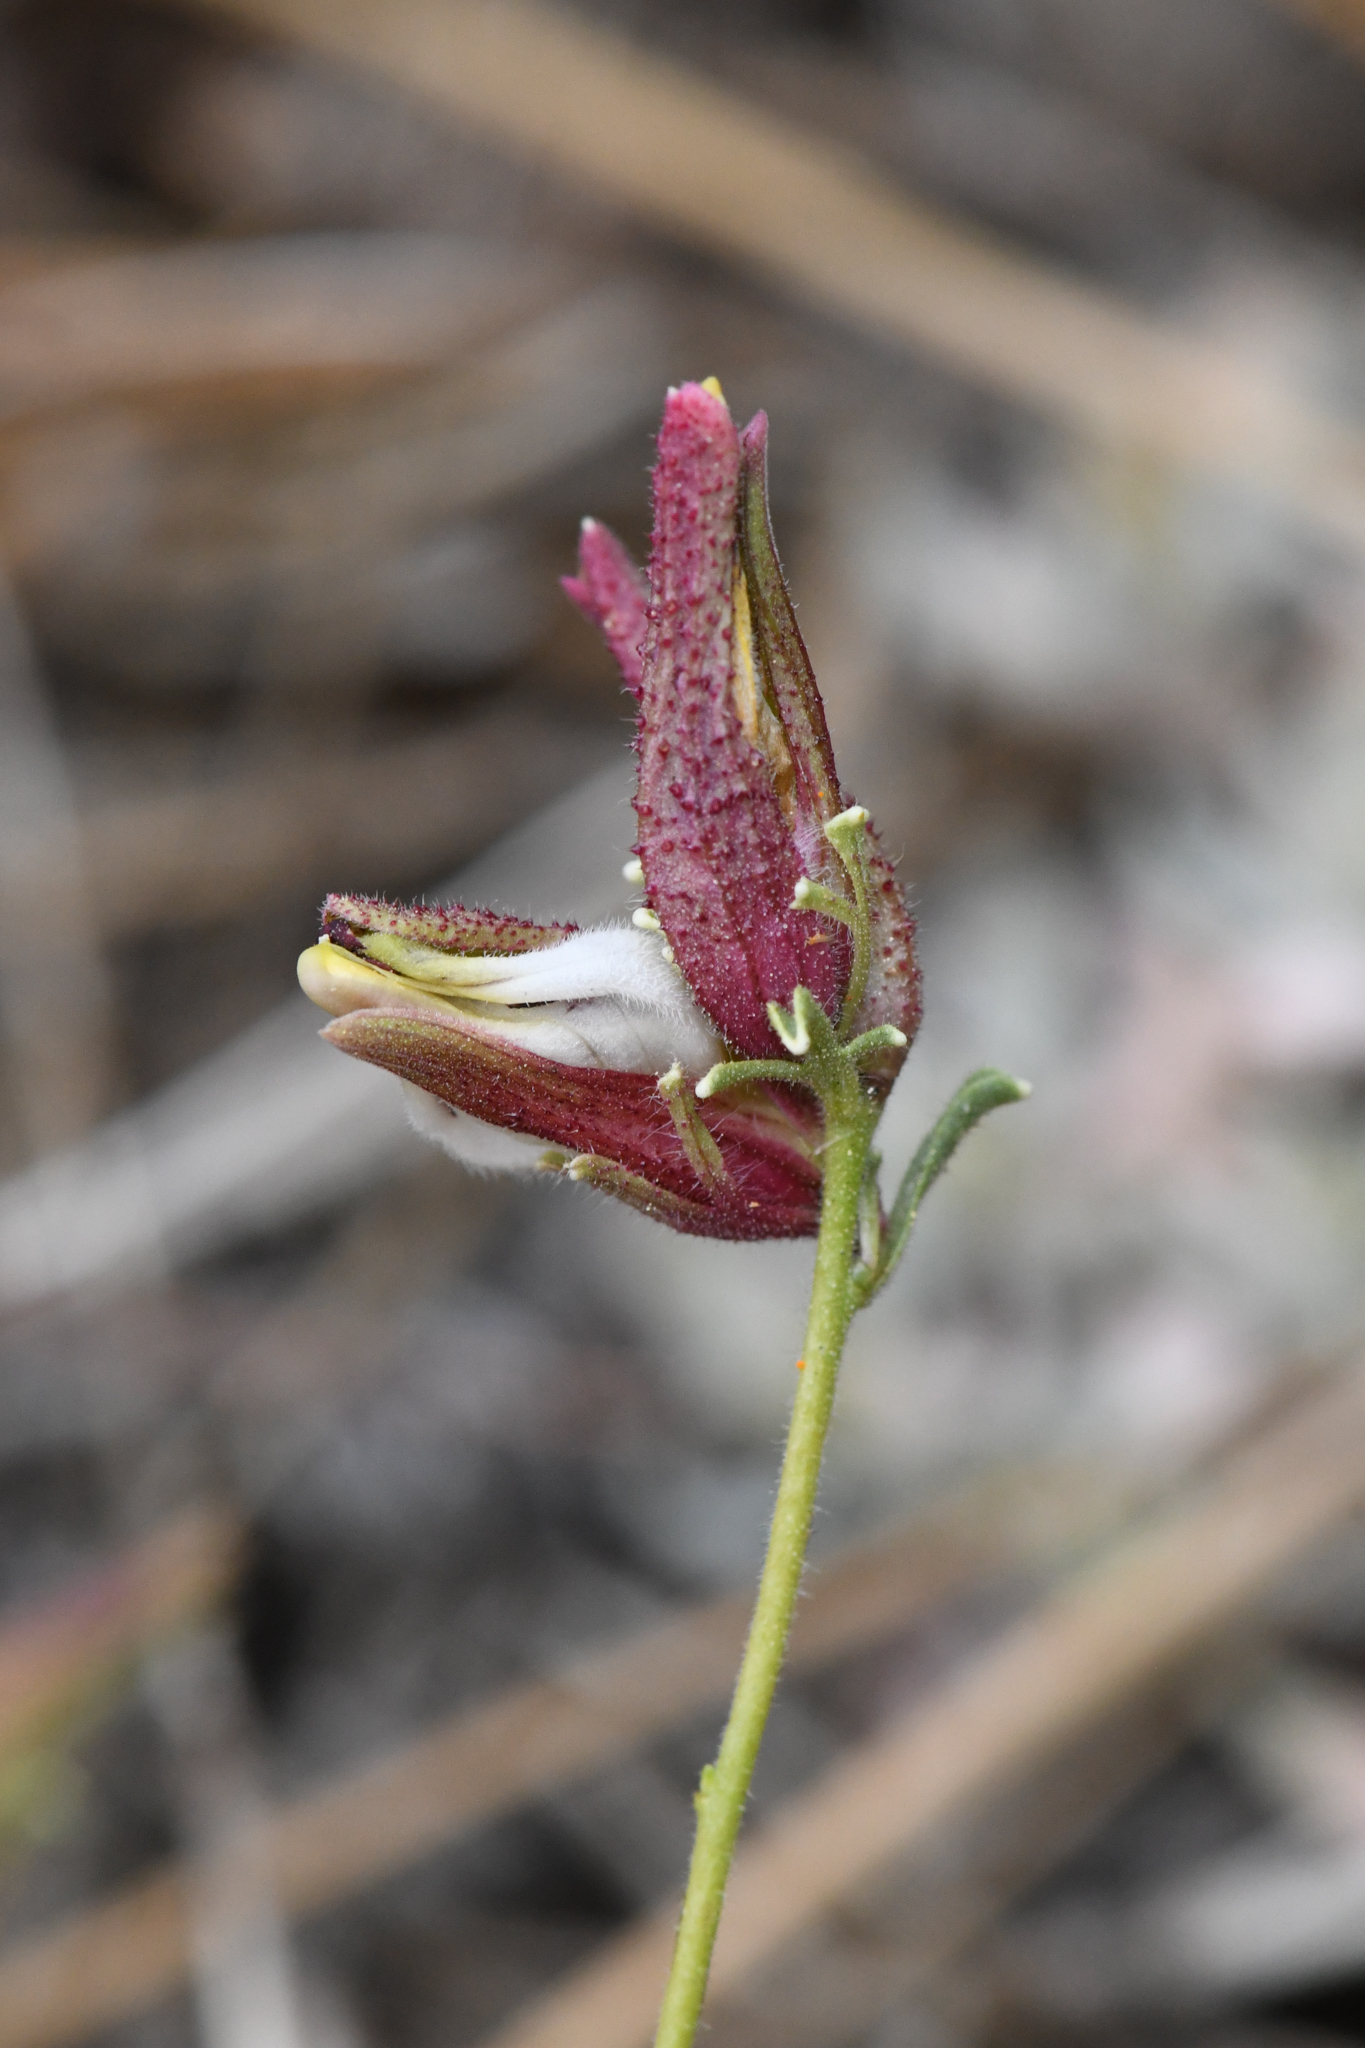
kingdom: Plantae
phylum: Tracheophyta
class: Magnoliopsida
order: Lamiales
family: Orobanchaceae
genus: Cordylanthus
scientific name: Cordylanthus nevinii
